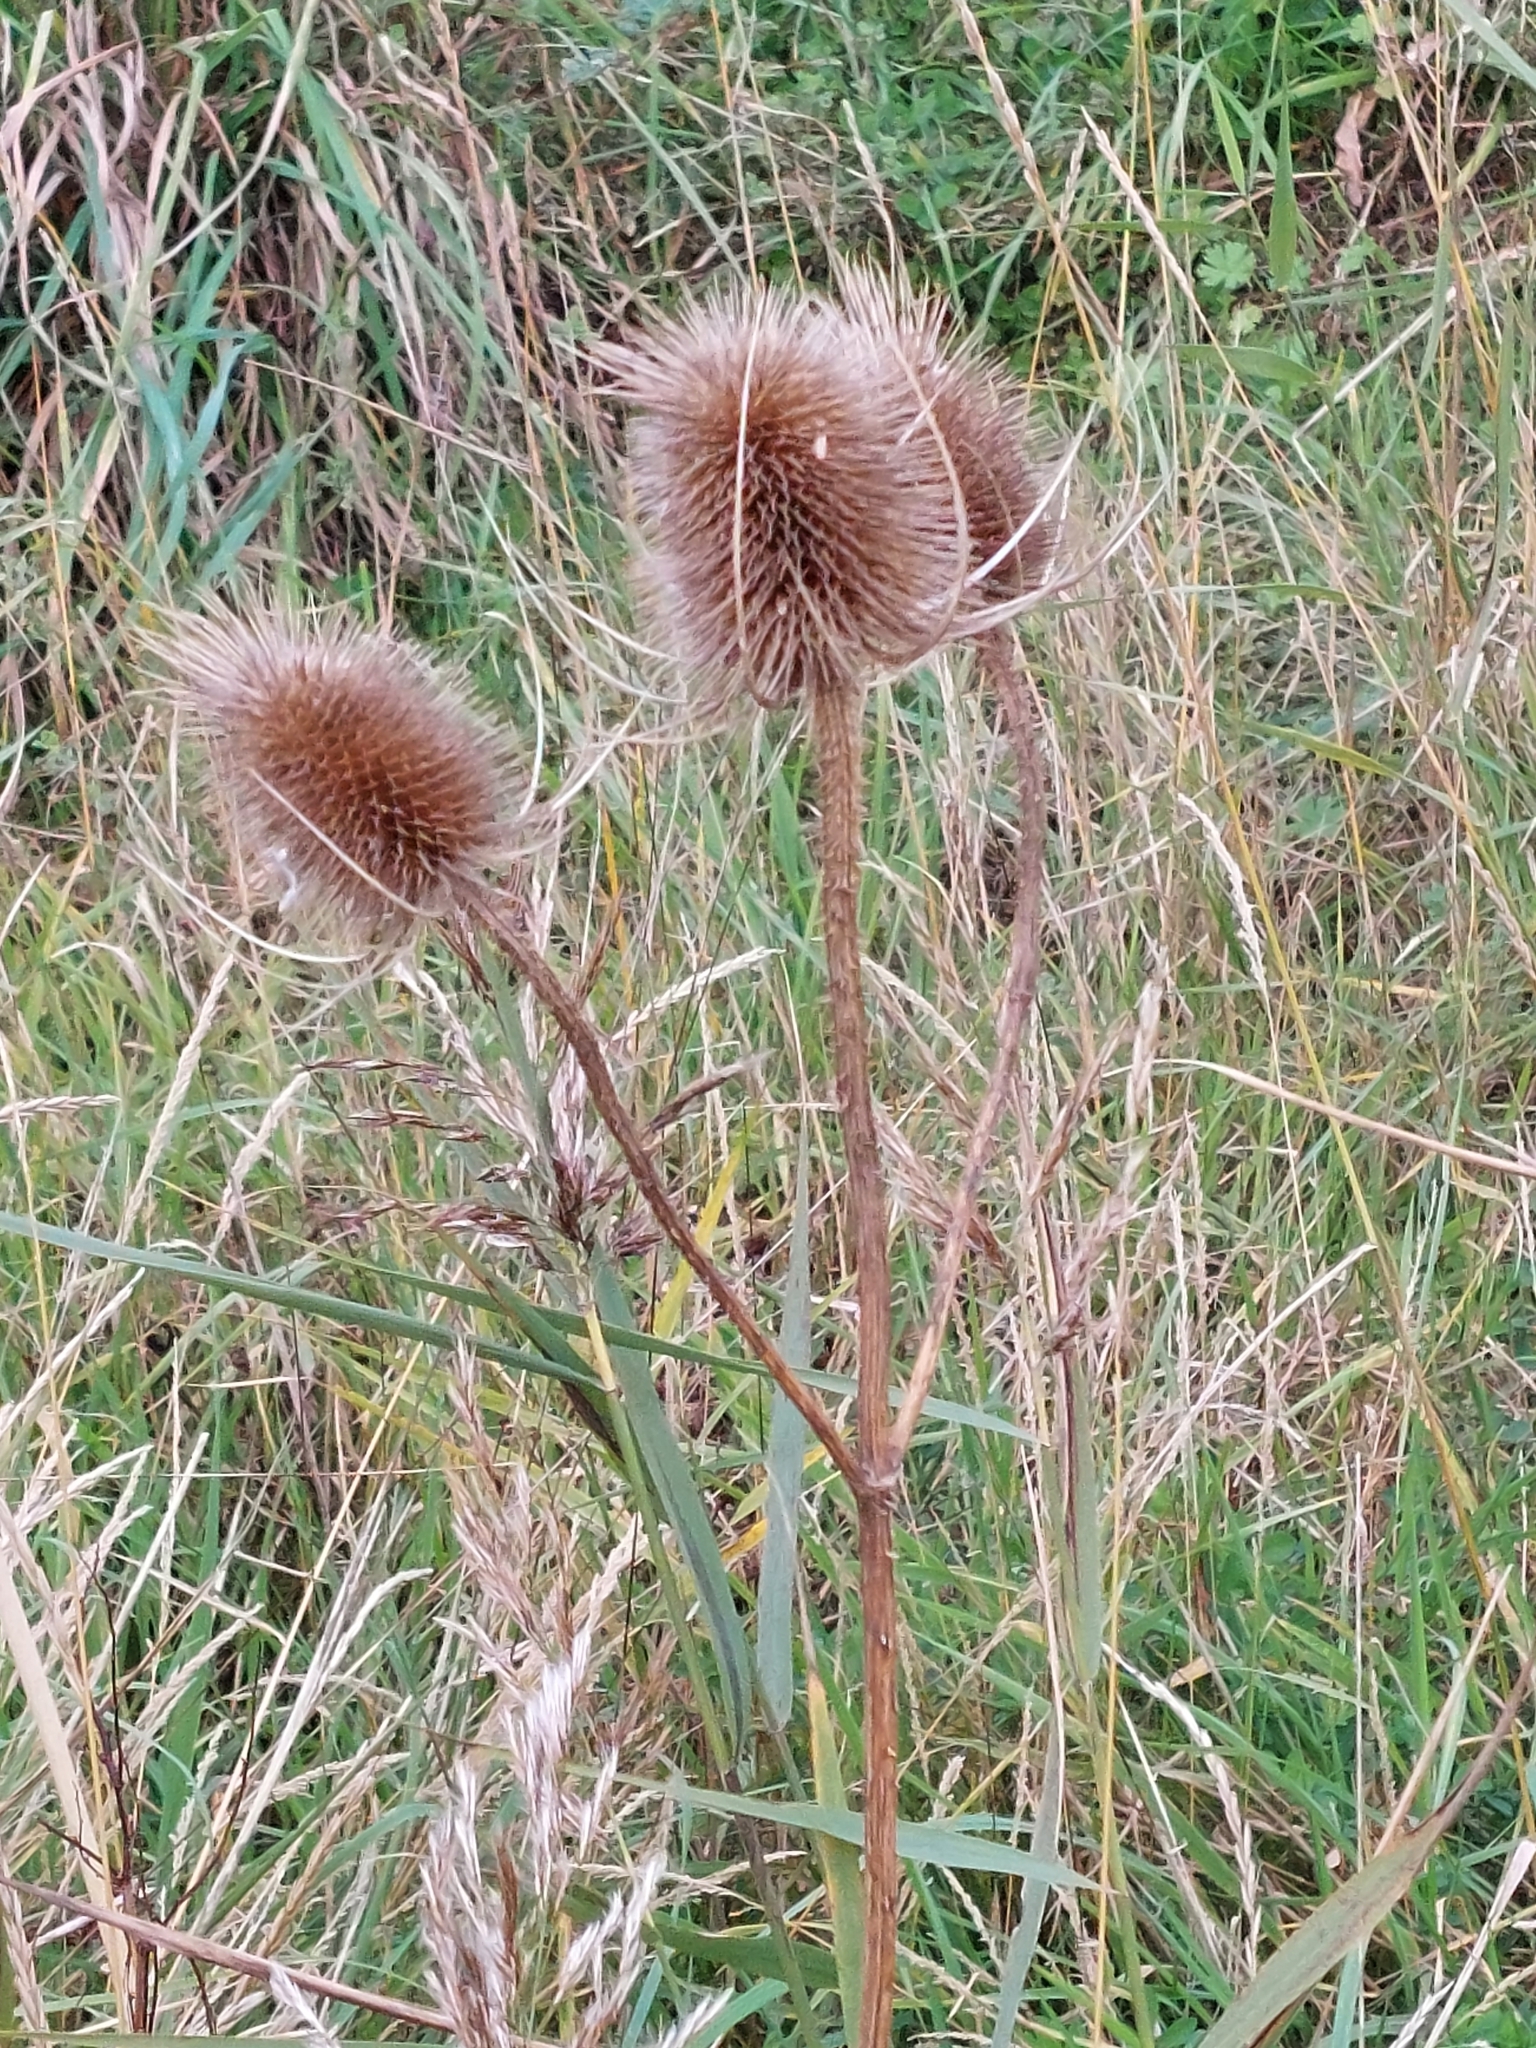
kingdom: Plantae
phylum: Tracheophyta
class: Magnoliopsida
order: Dipsacales
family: Caprifoliaceae
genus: Dipsacus
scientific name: Dipsacus fullonum
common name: Teasel
